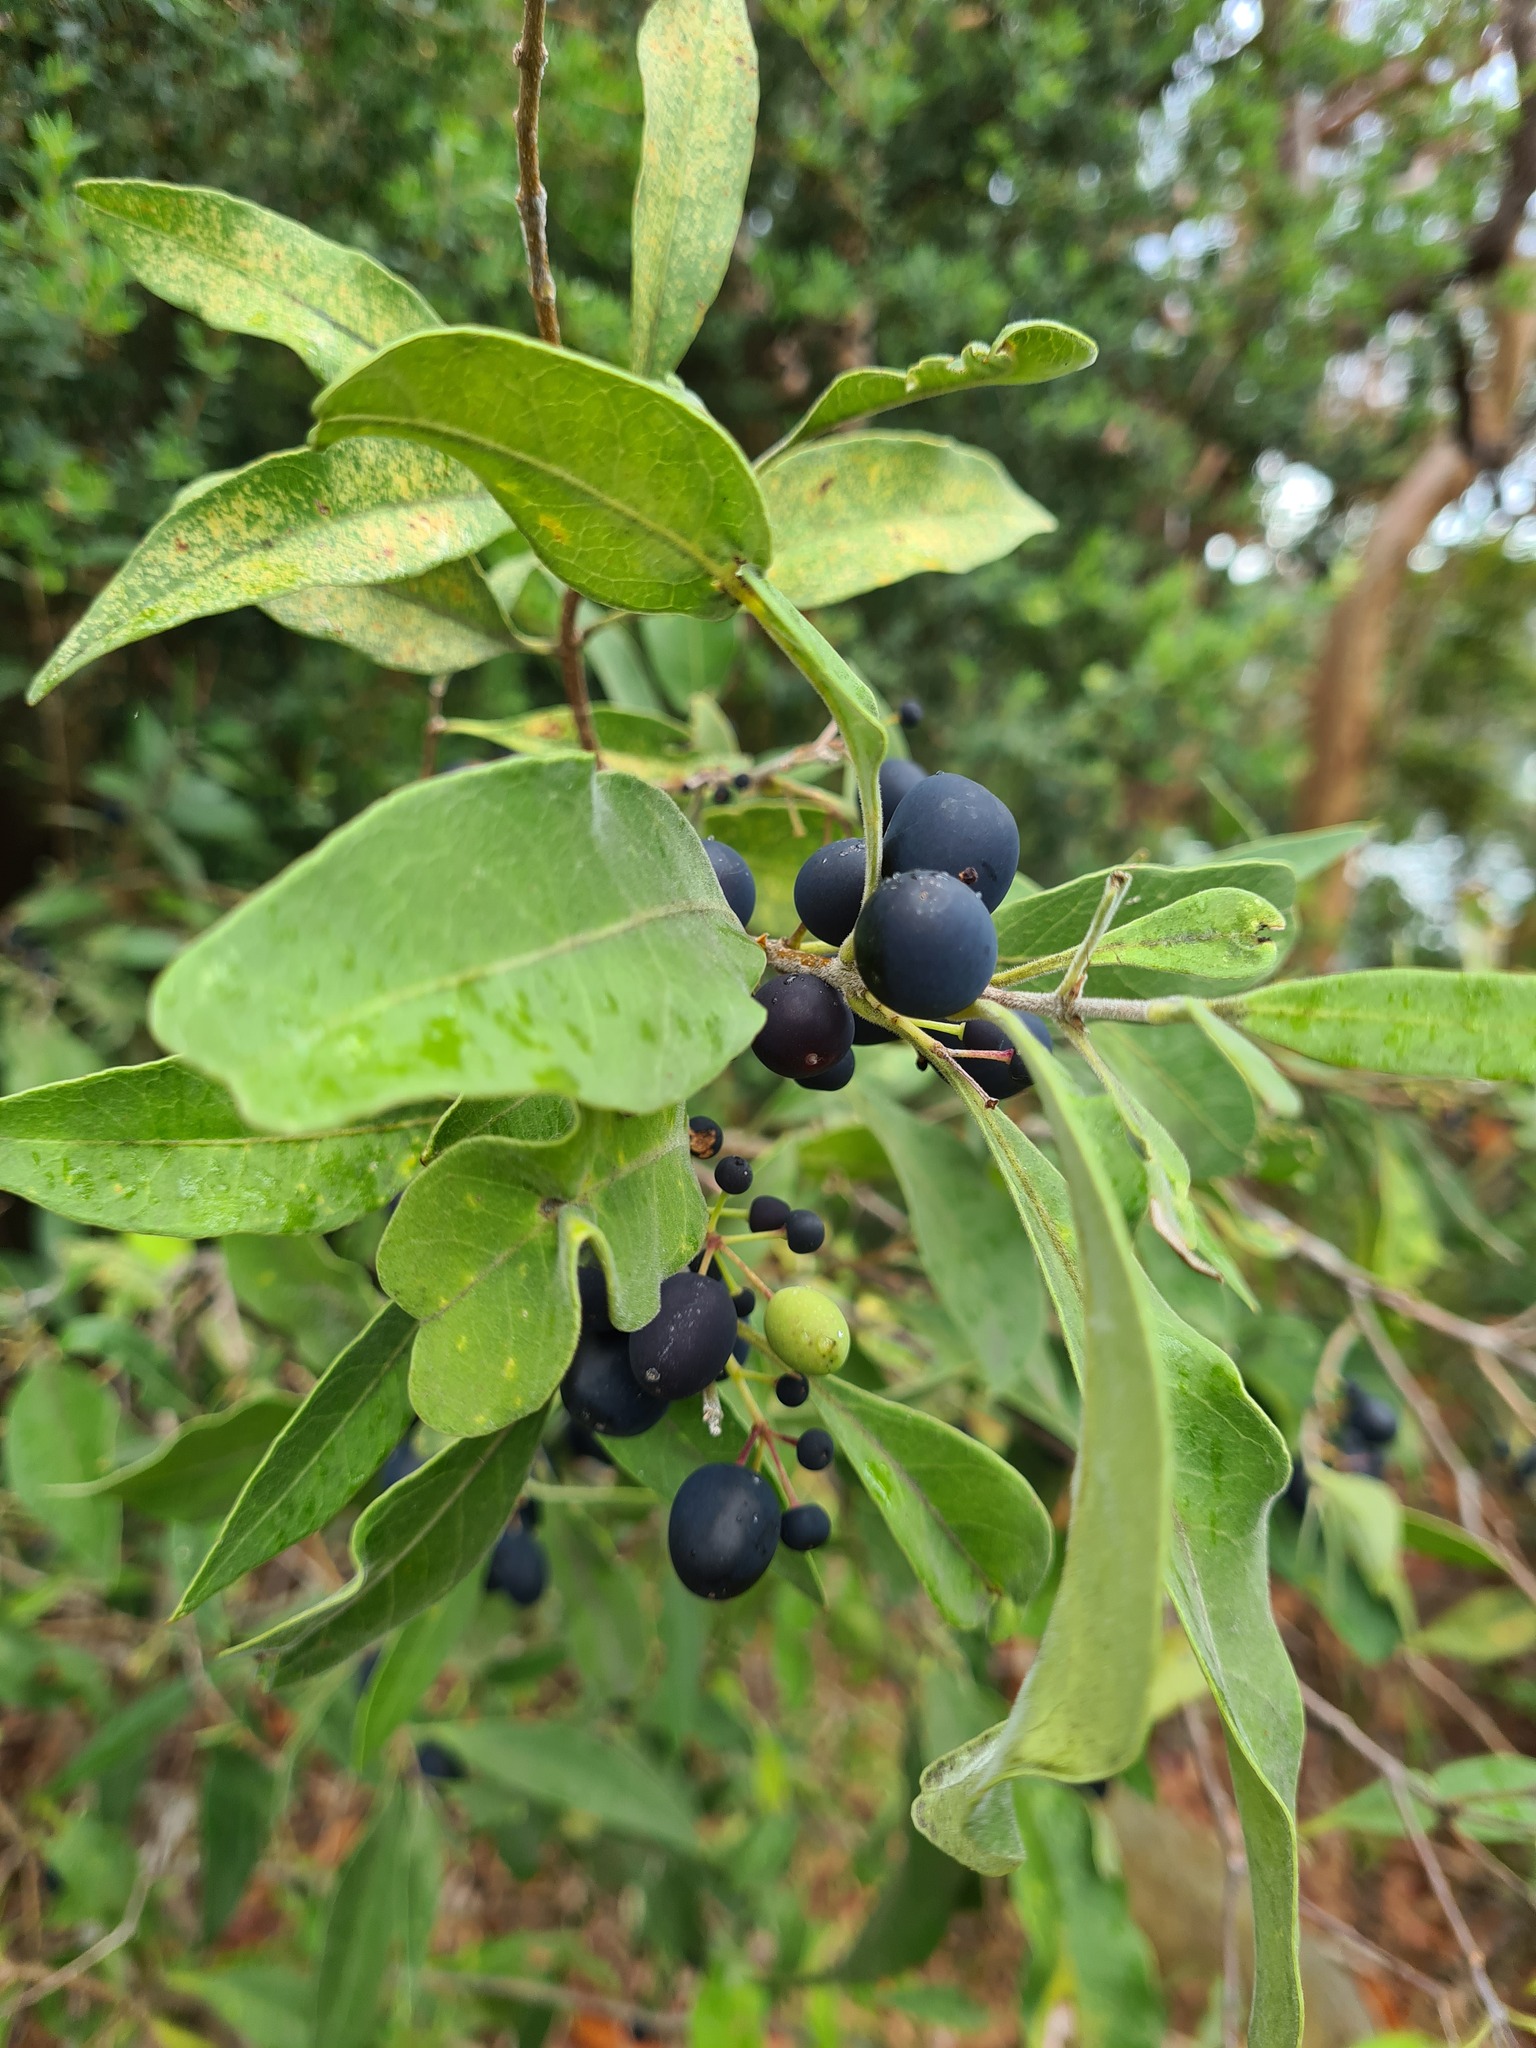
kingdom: Plantae
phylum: Tracheophyta
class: Magnoliopsida
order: Lamiales
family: Oleaceae
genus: Notelaea
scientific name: Notelaea longifolia
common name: Large mock olive
